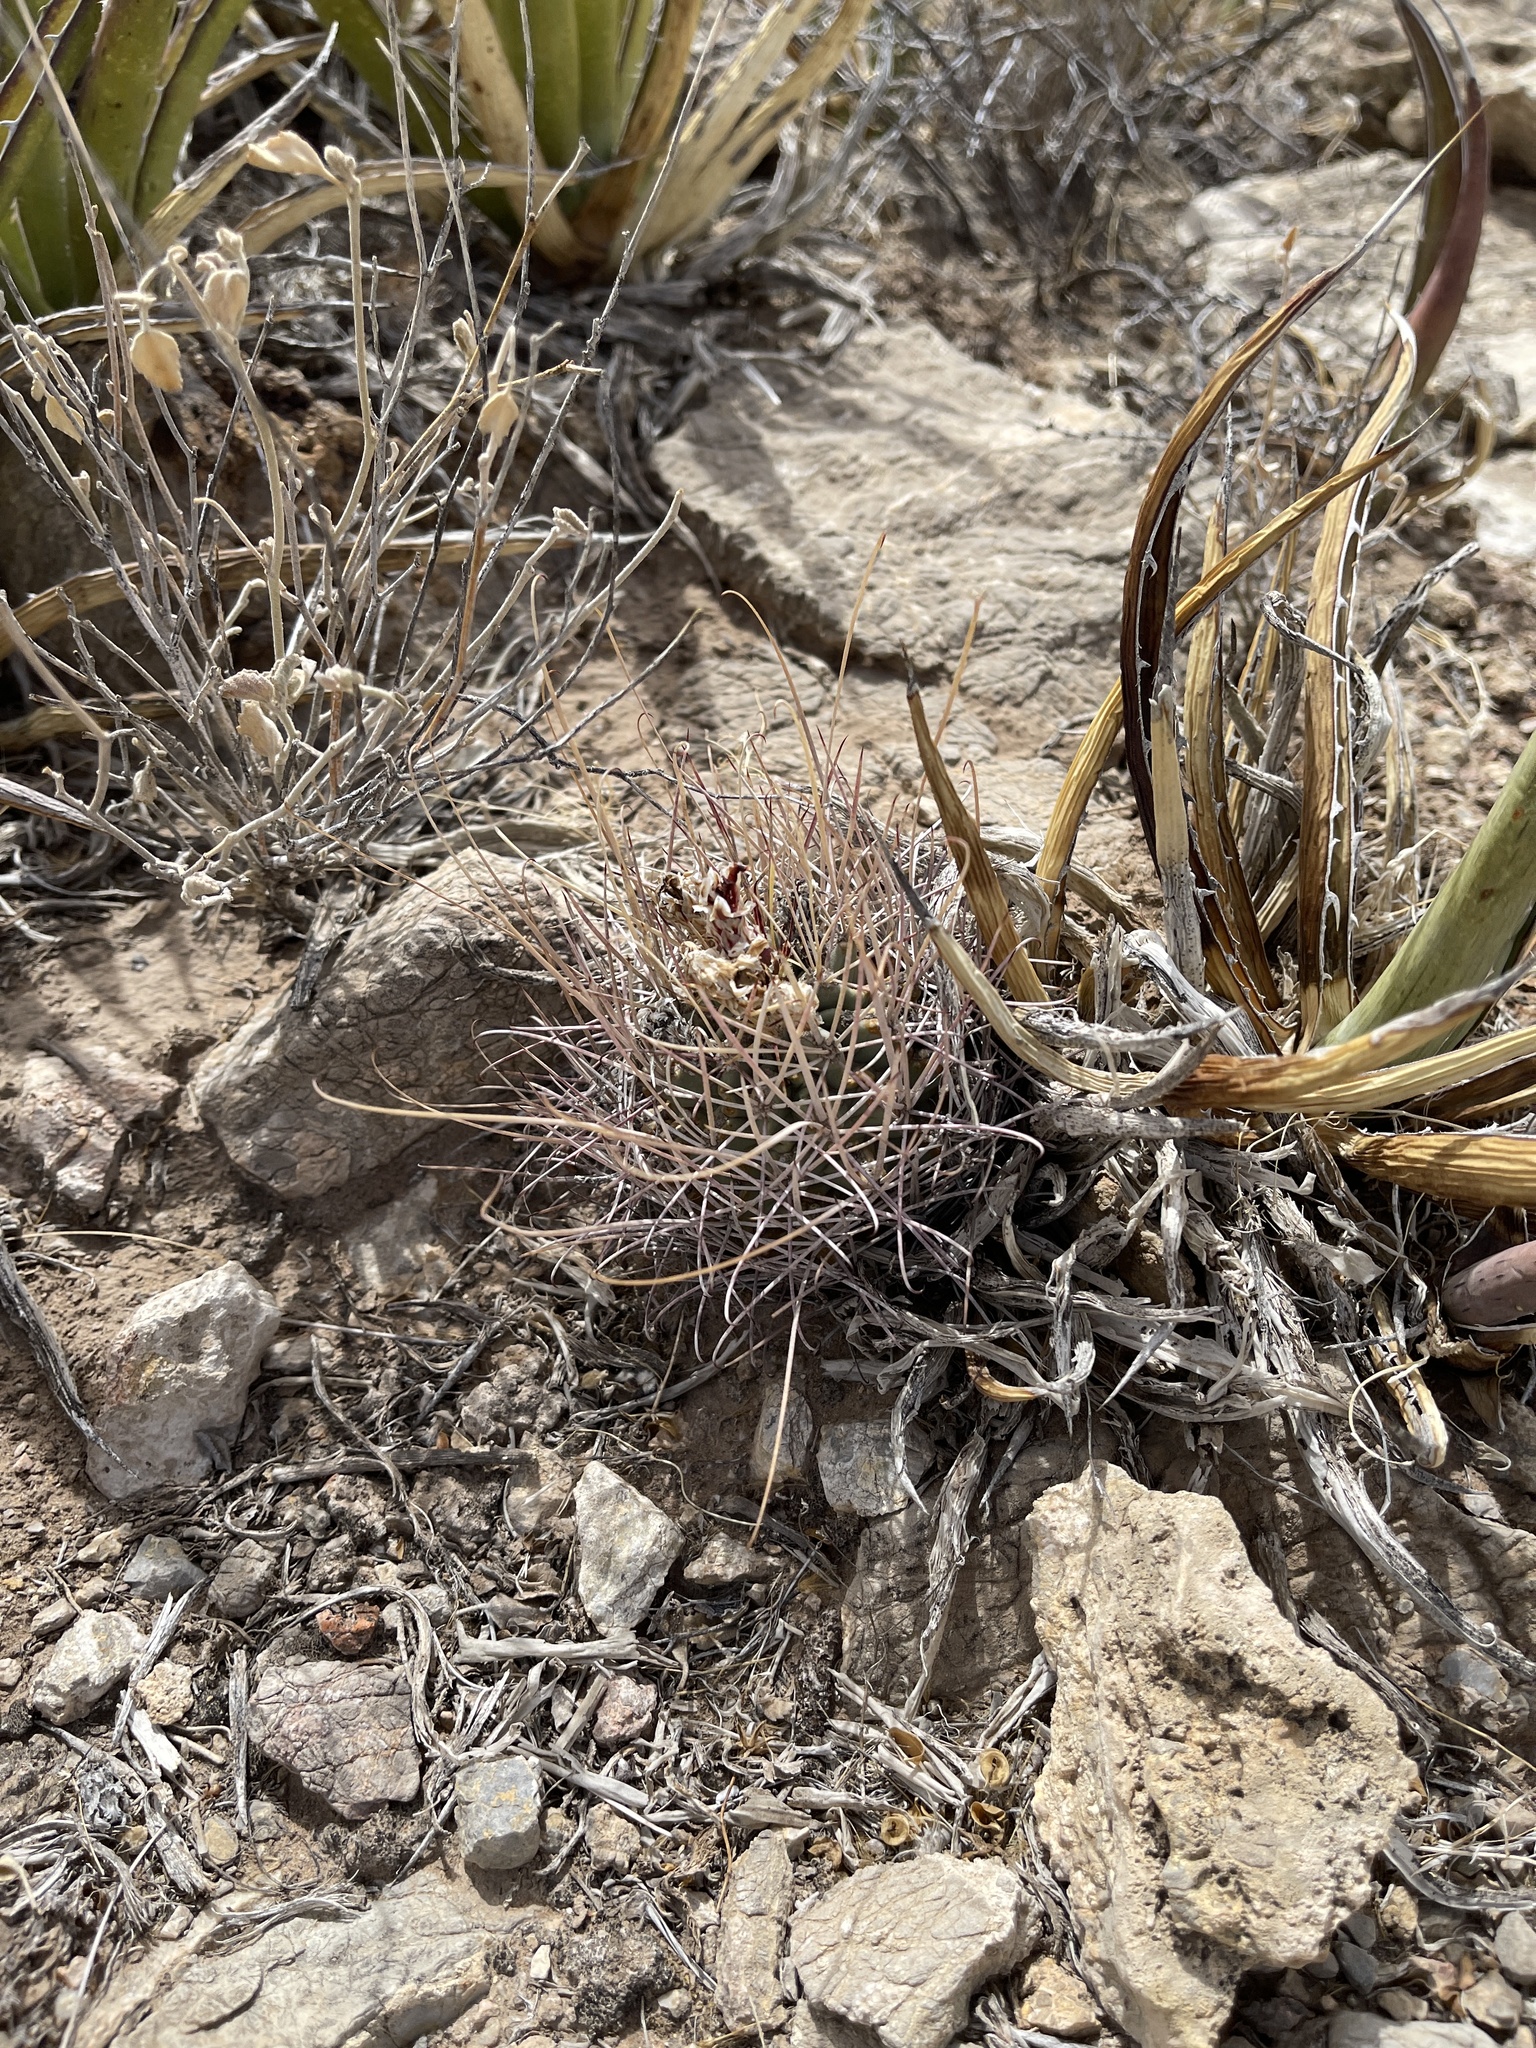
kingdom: Plantae
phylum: Tracheophyta
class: Magnoliopsida
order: Caryophyllales
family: Cactaceae
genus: Ferocactus
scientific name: Ferocactus uncinatus
